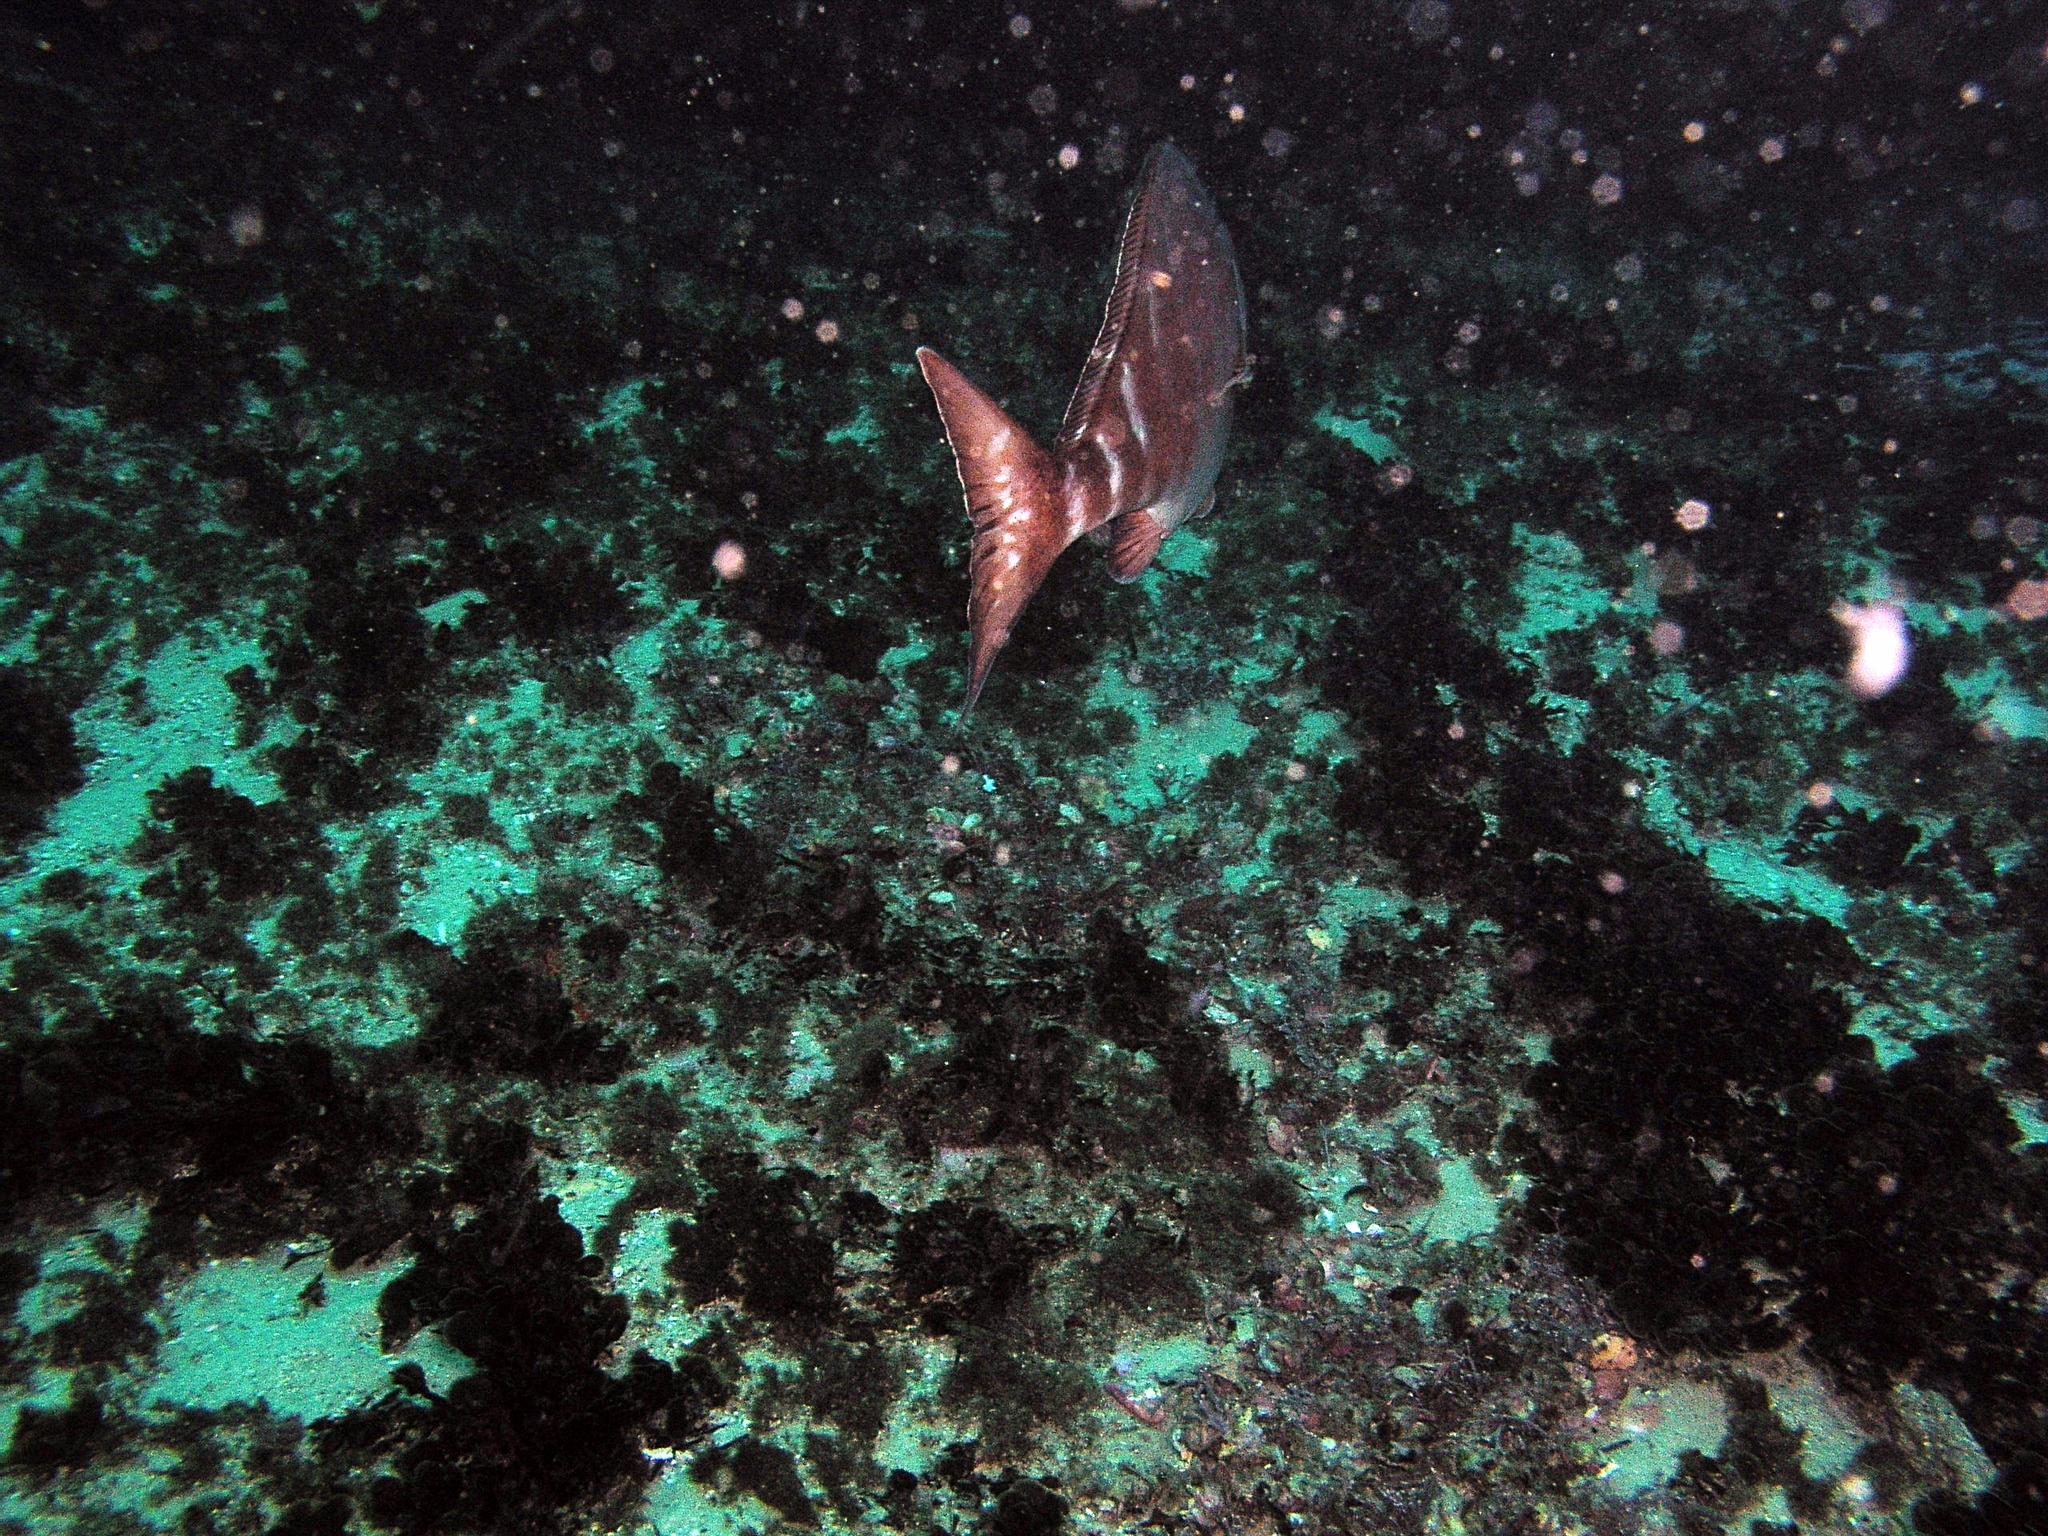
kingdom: Animalia
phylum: Chordata
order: Perciformes
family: Latridae
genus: Morwong
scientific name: Morwong fuscus
